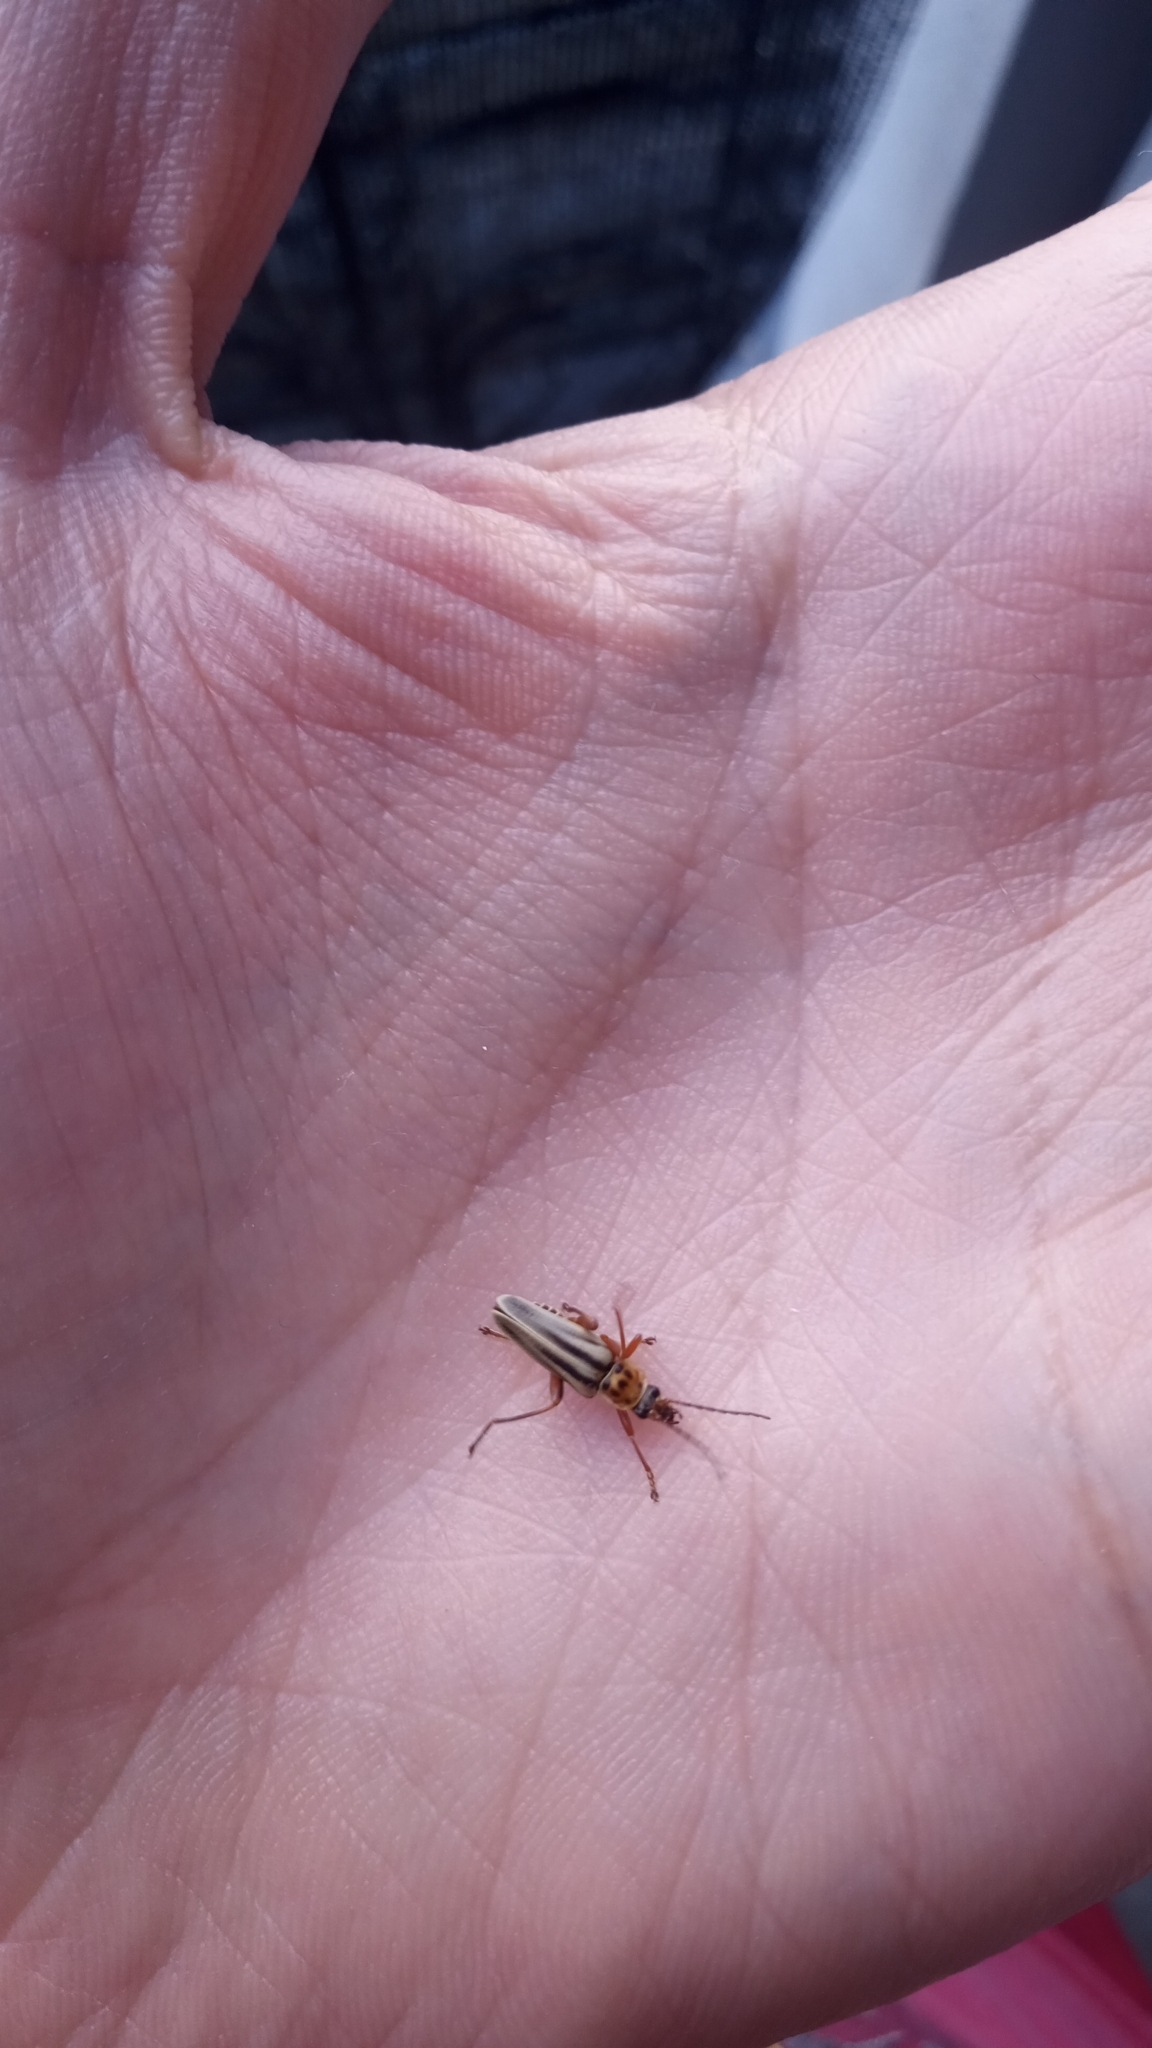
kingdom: Animalia
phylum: Arthropoda
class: Insecta
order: Coleoptera
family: Cantharidae
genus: Chauliognathus
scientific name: Chauliognathus
